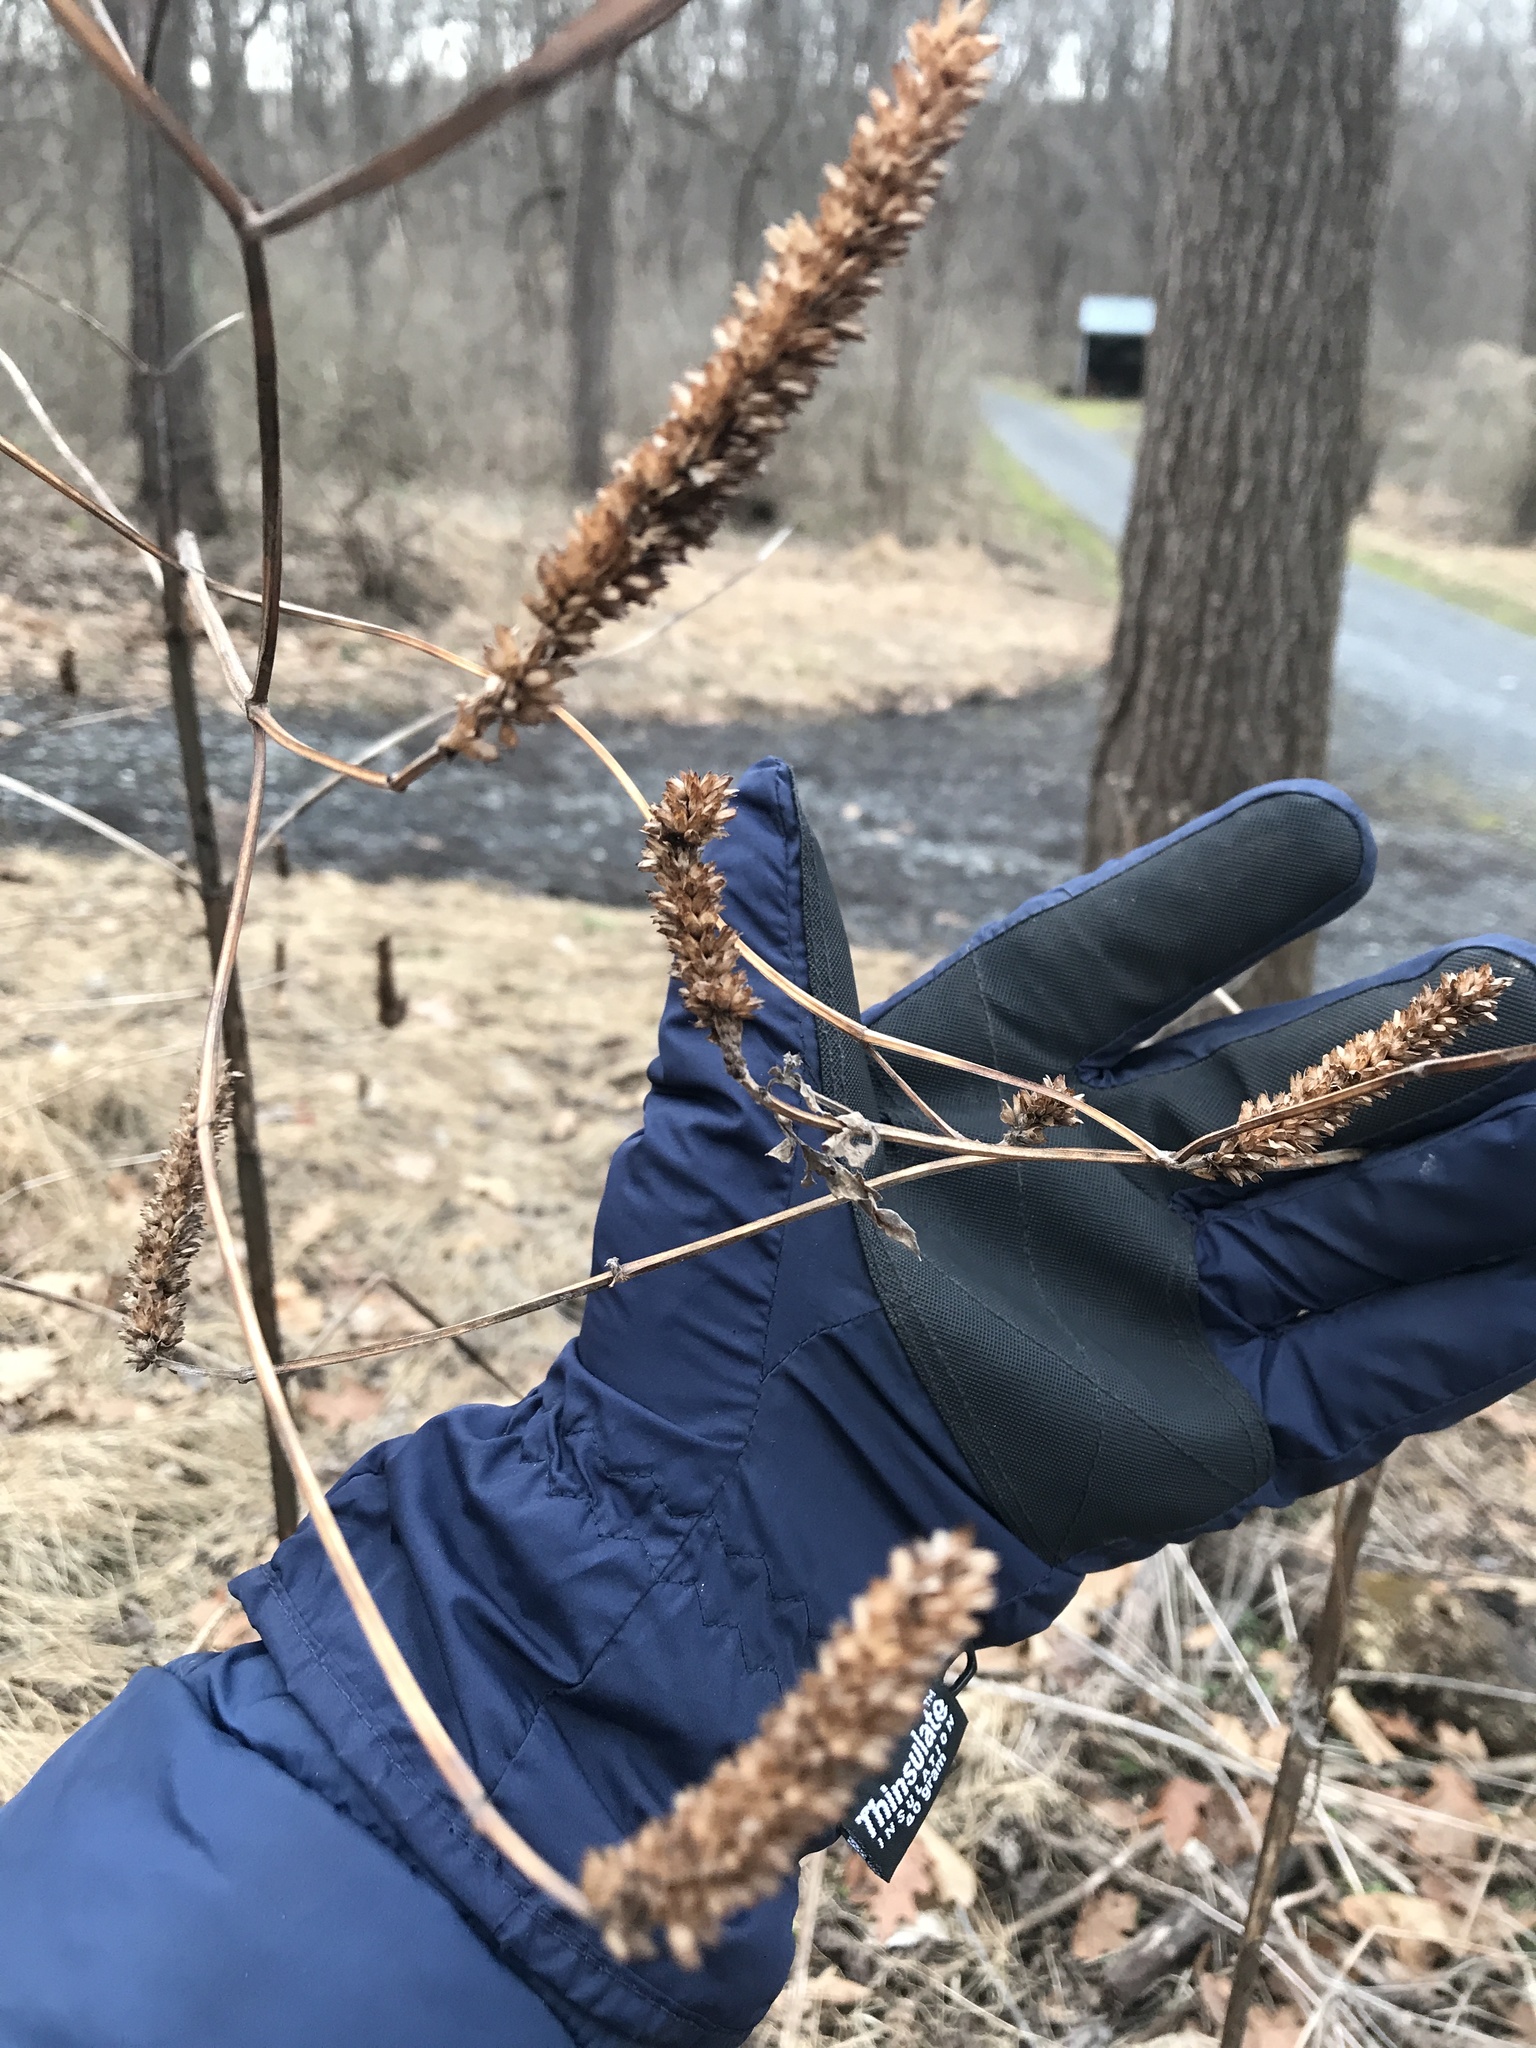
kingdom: Plantae
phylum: Tracheophyta
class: Magnoliopsida
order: Lamiales
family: Lamiaceae
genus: Elsholtzia
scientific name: Elsholtzia ciliata
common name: Ciliate elsholtzia
